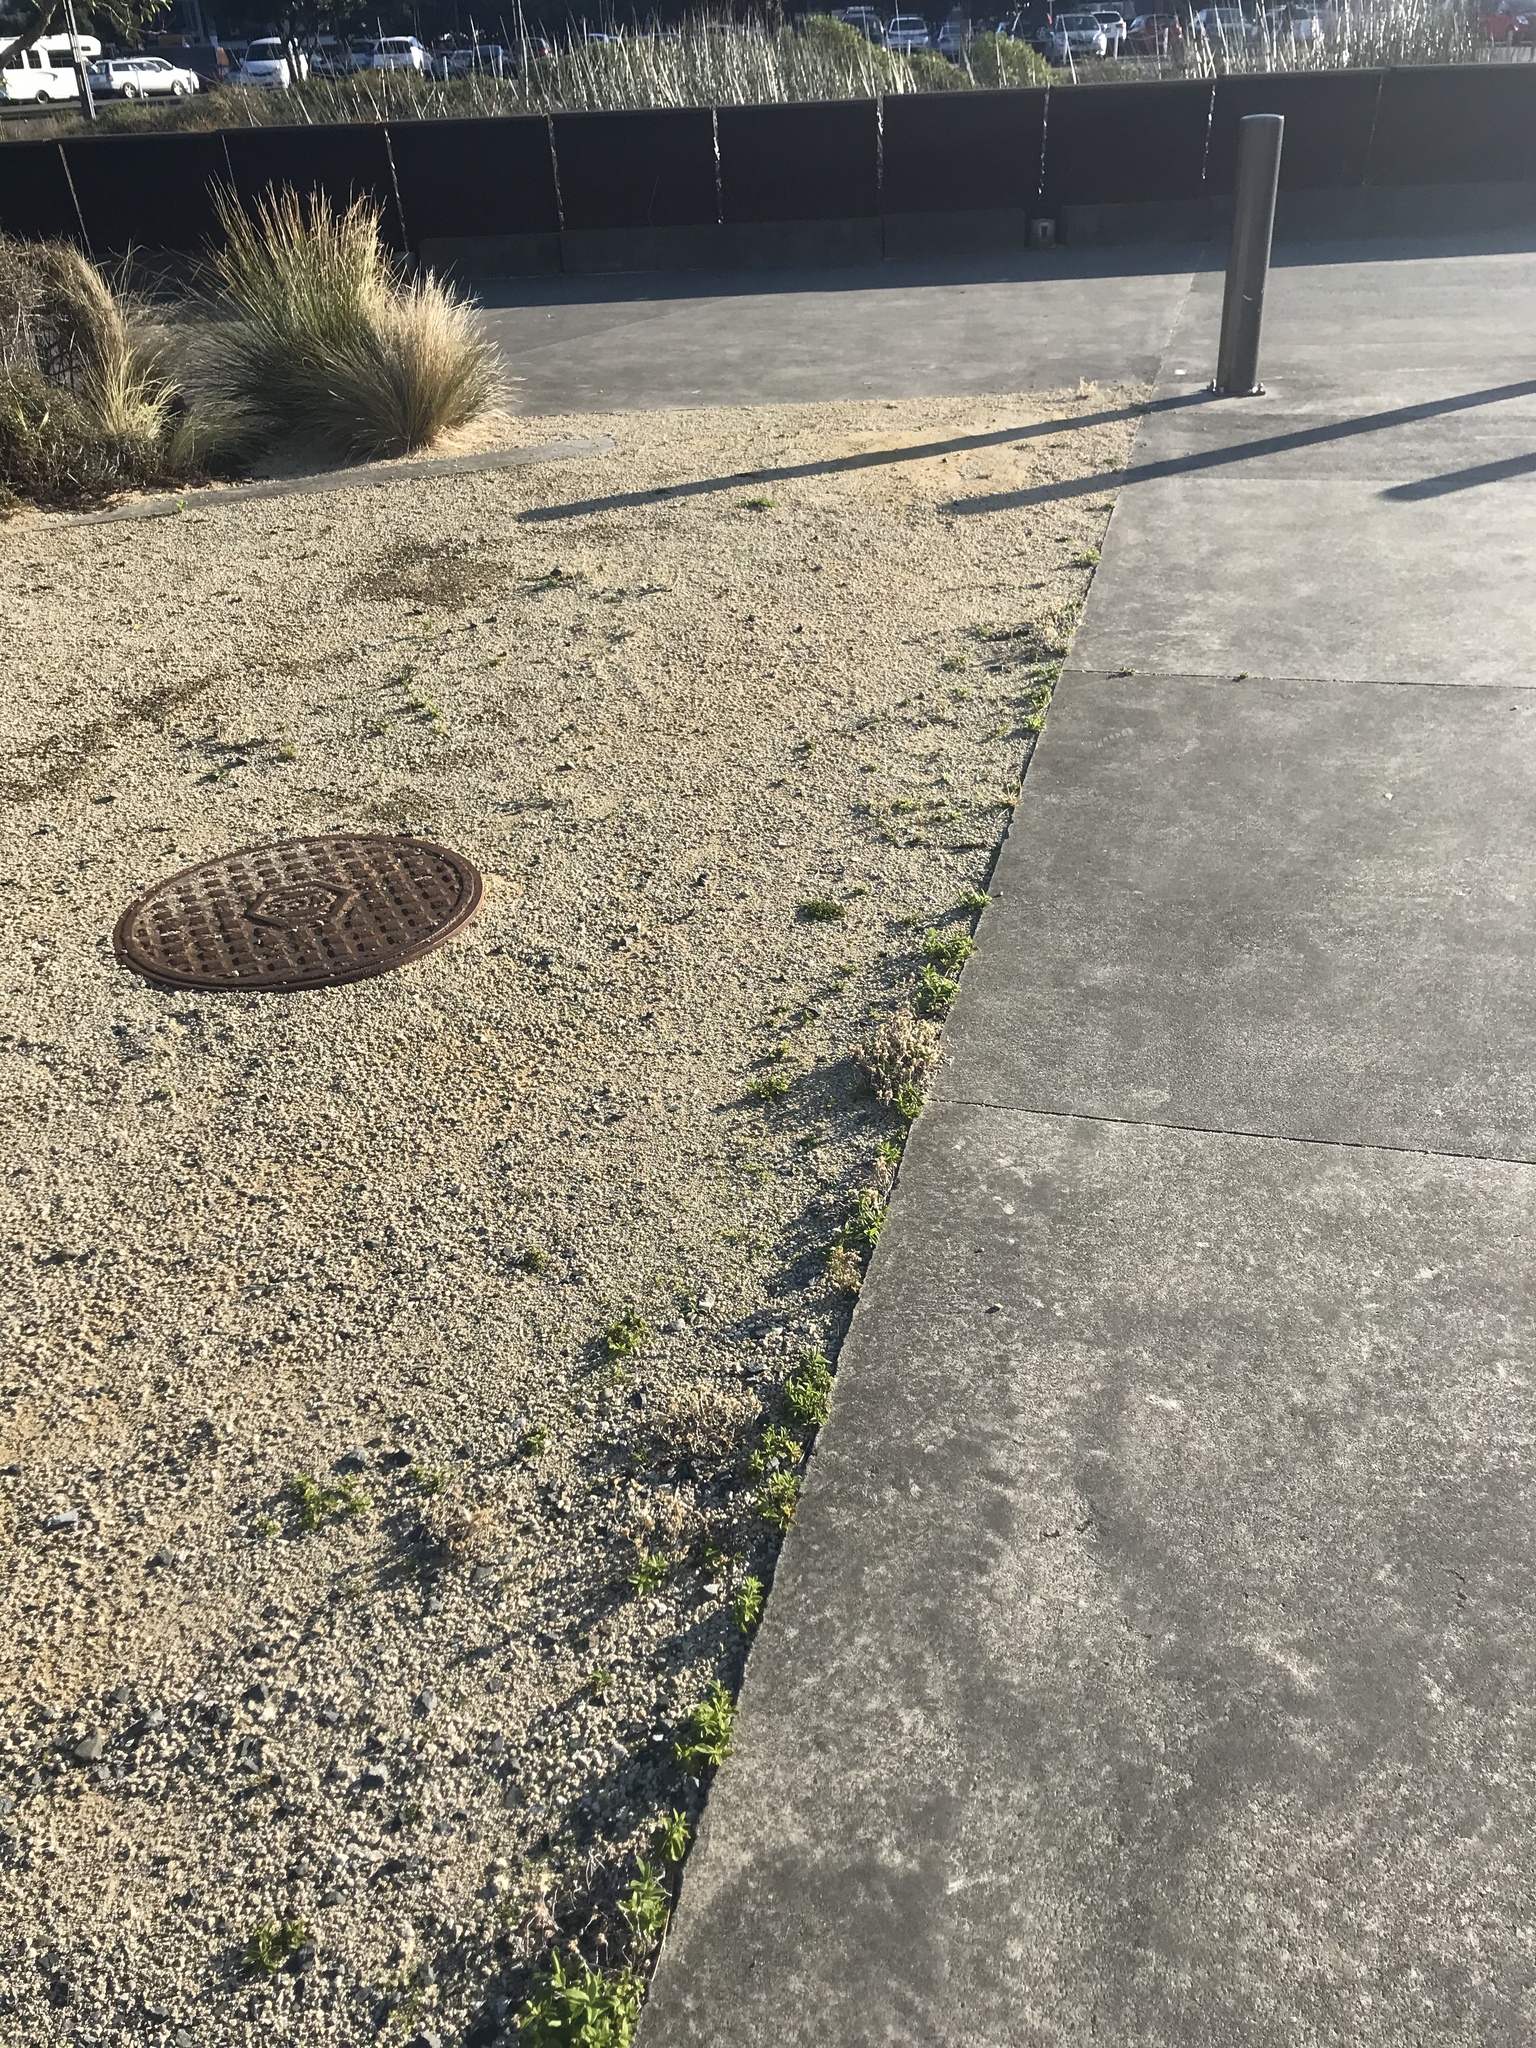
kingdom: Plantae
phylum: Tracheophyta
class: Magnoliopsida
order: Lamiales
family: Plantaginaceae
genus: Veronica
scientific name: Veronica stricta
